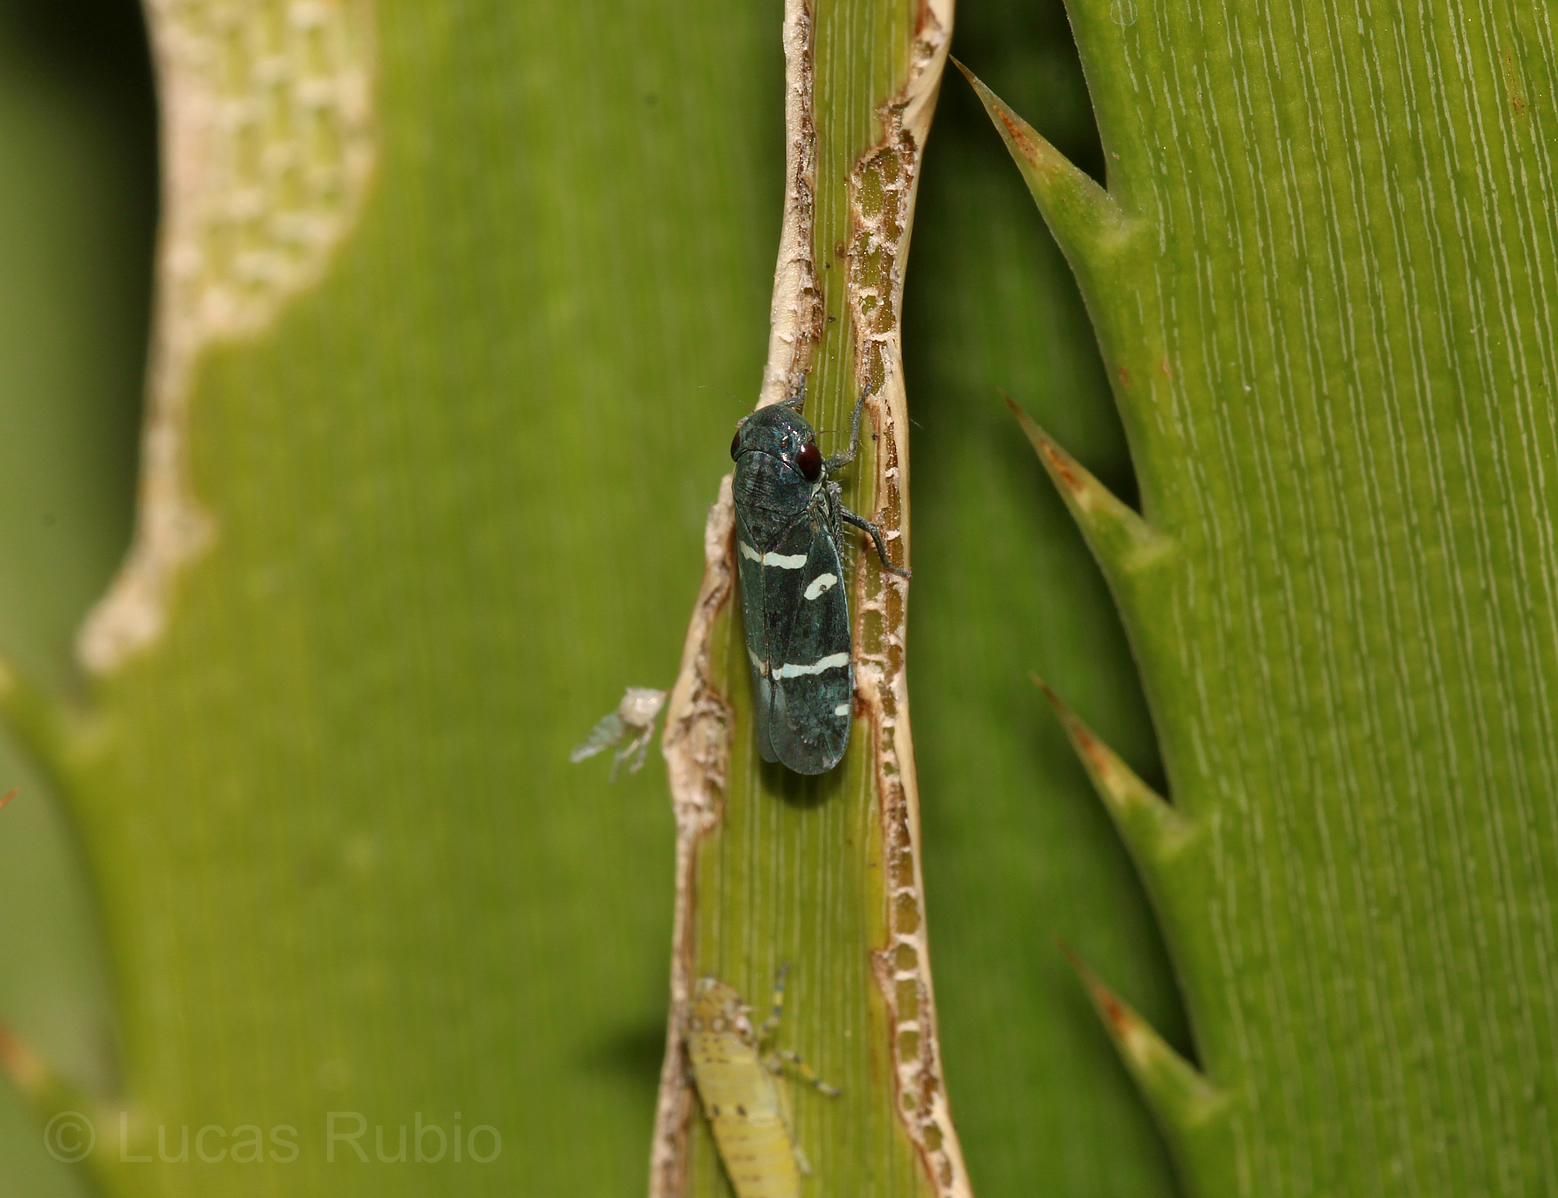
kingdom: Animalia
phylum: Arthropoda
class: Insecta
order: Hemiptera
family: Cicadellidae
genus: Balacha
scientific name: Balacha similis
